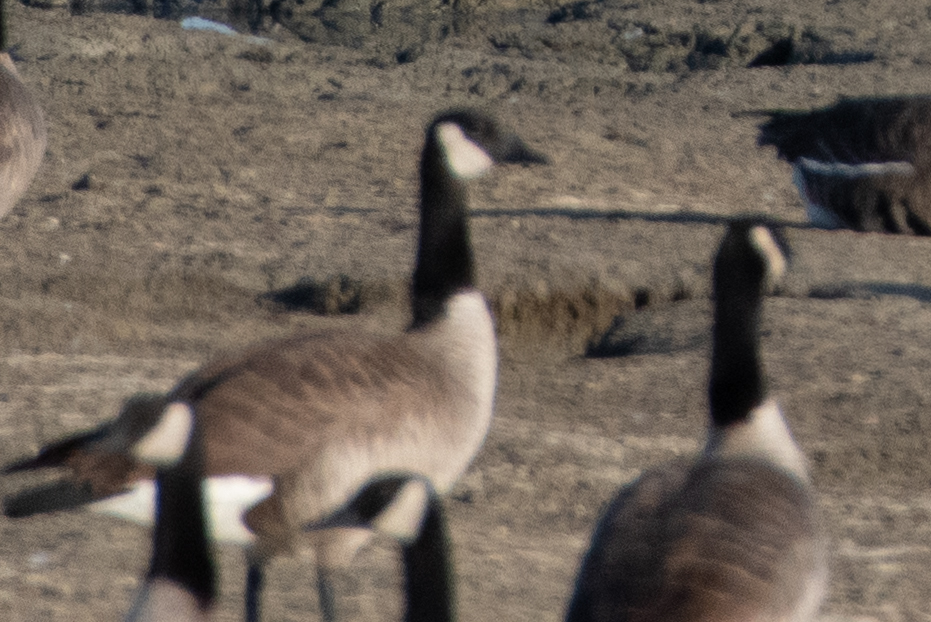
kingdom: Animalia
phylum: Chordata
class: Aves
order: Anseriformes
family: Anatidae
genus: Branta
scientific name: Branta canadensis
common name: Canada goose
